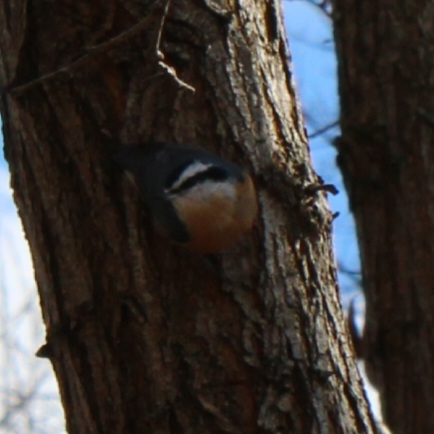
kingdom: Animalia
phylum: Chordata
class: Aves
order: Passeriformes
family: Sittidae
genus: Sitta
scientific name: Sitta canadensis
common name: Red-breasted nuthatch
